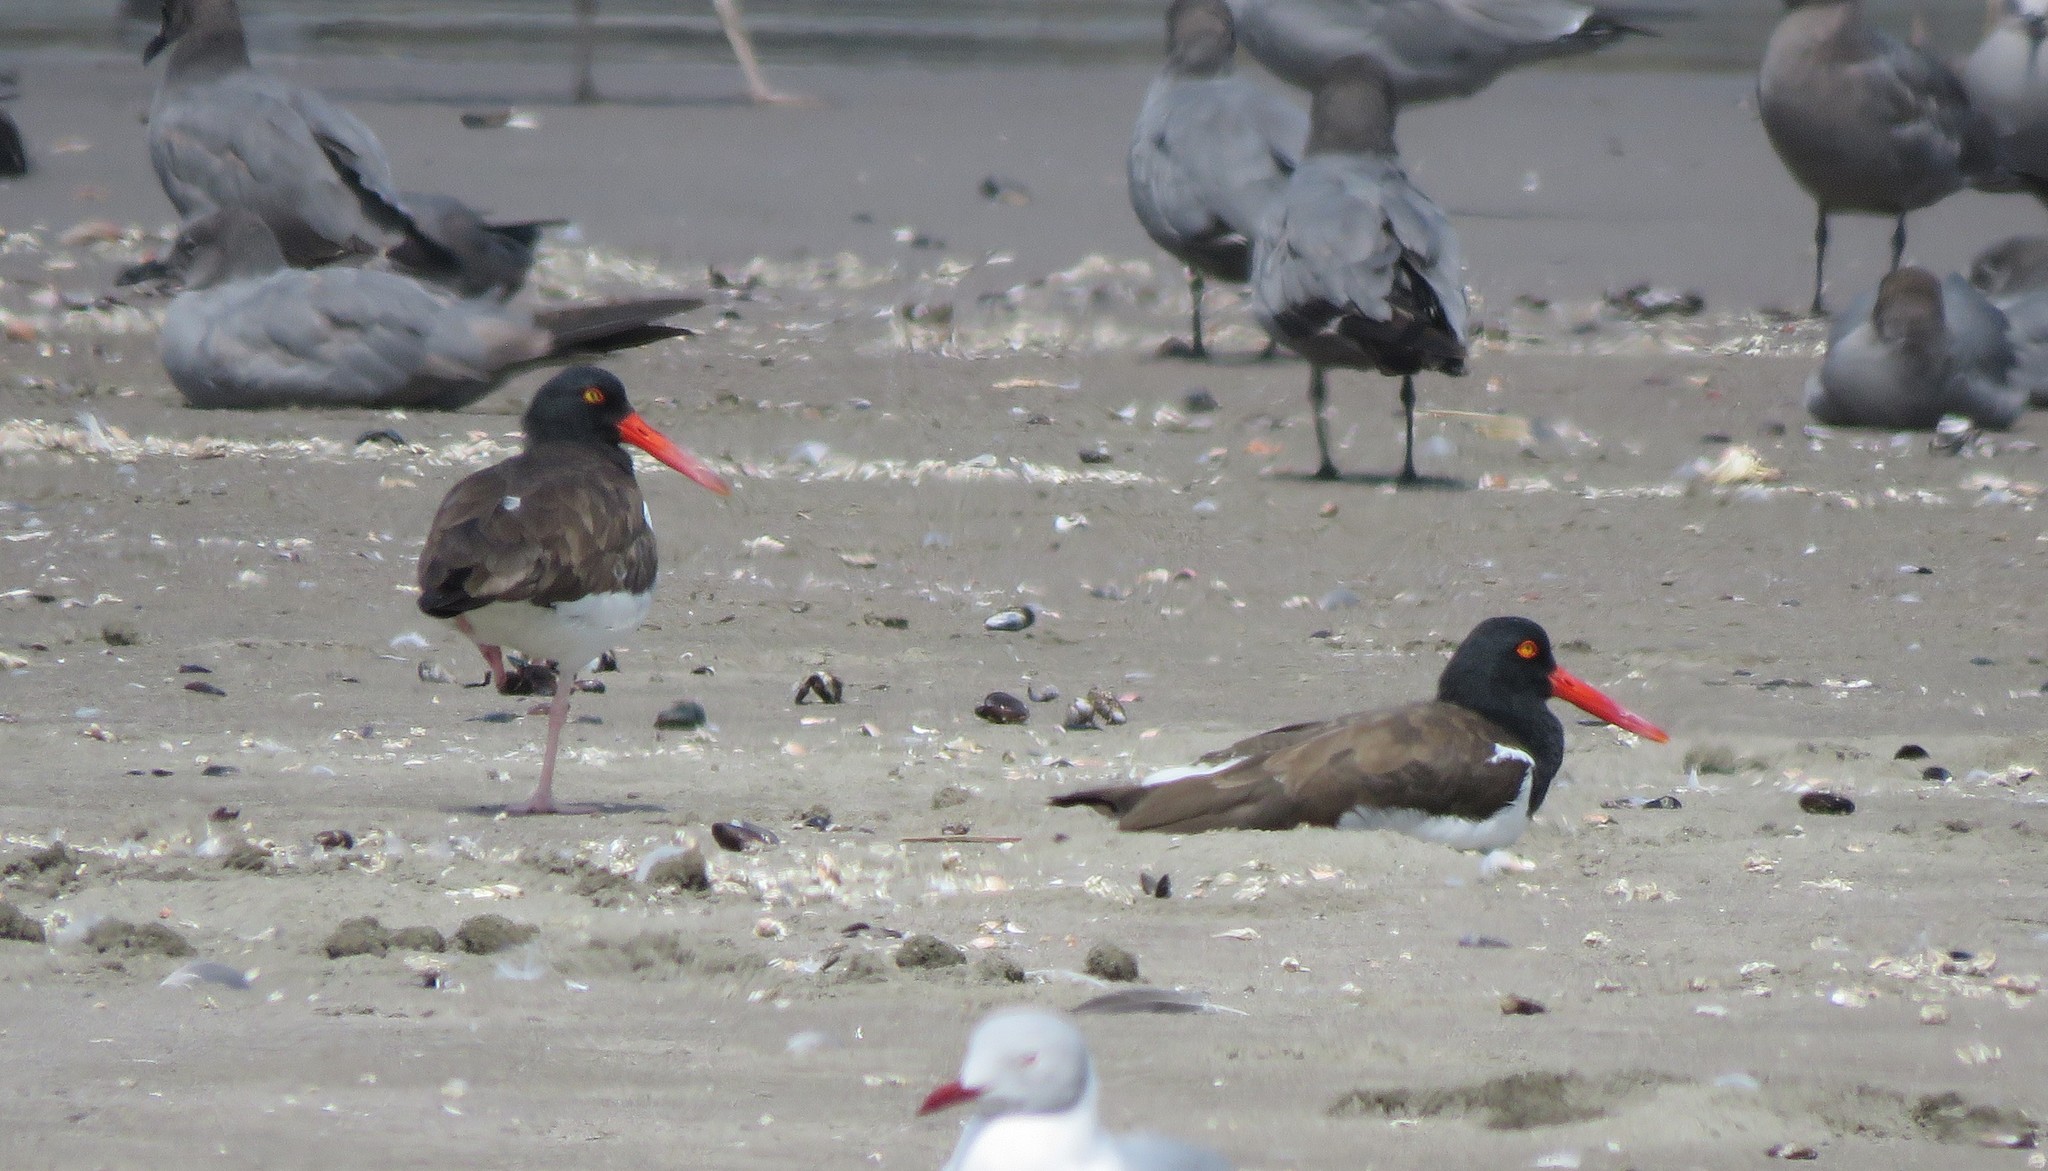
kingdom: Animalia
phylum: Chordata
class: Aves
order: Charadriiformes
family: Haematopodidae
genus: Haematopus
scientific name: Haematopus palliatus
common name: American oystercatcher
